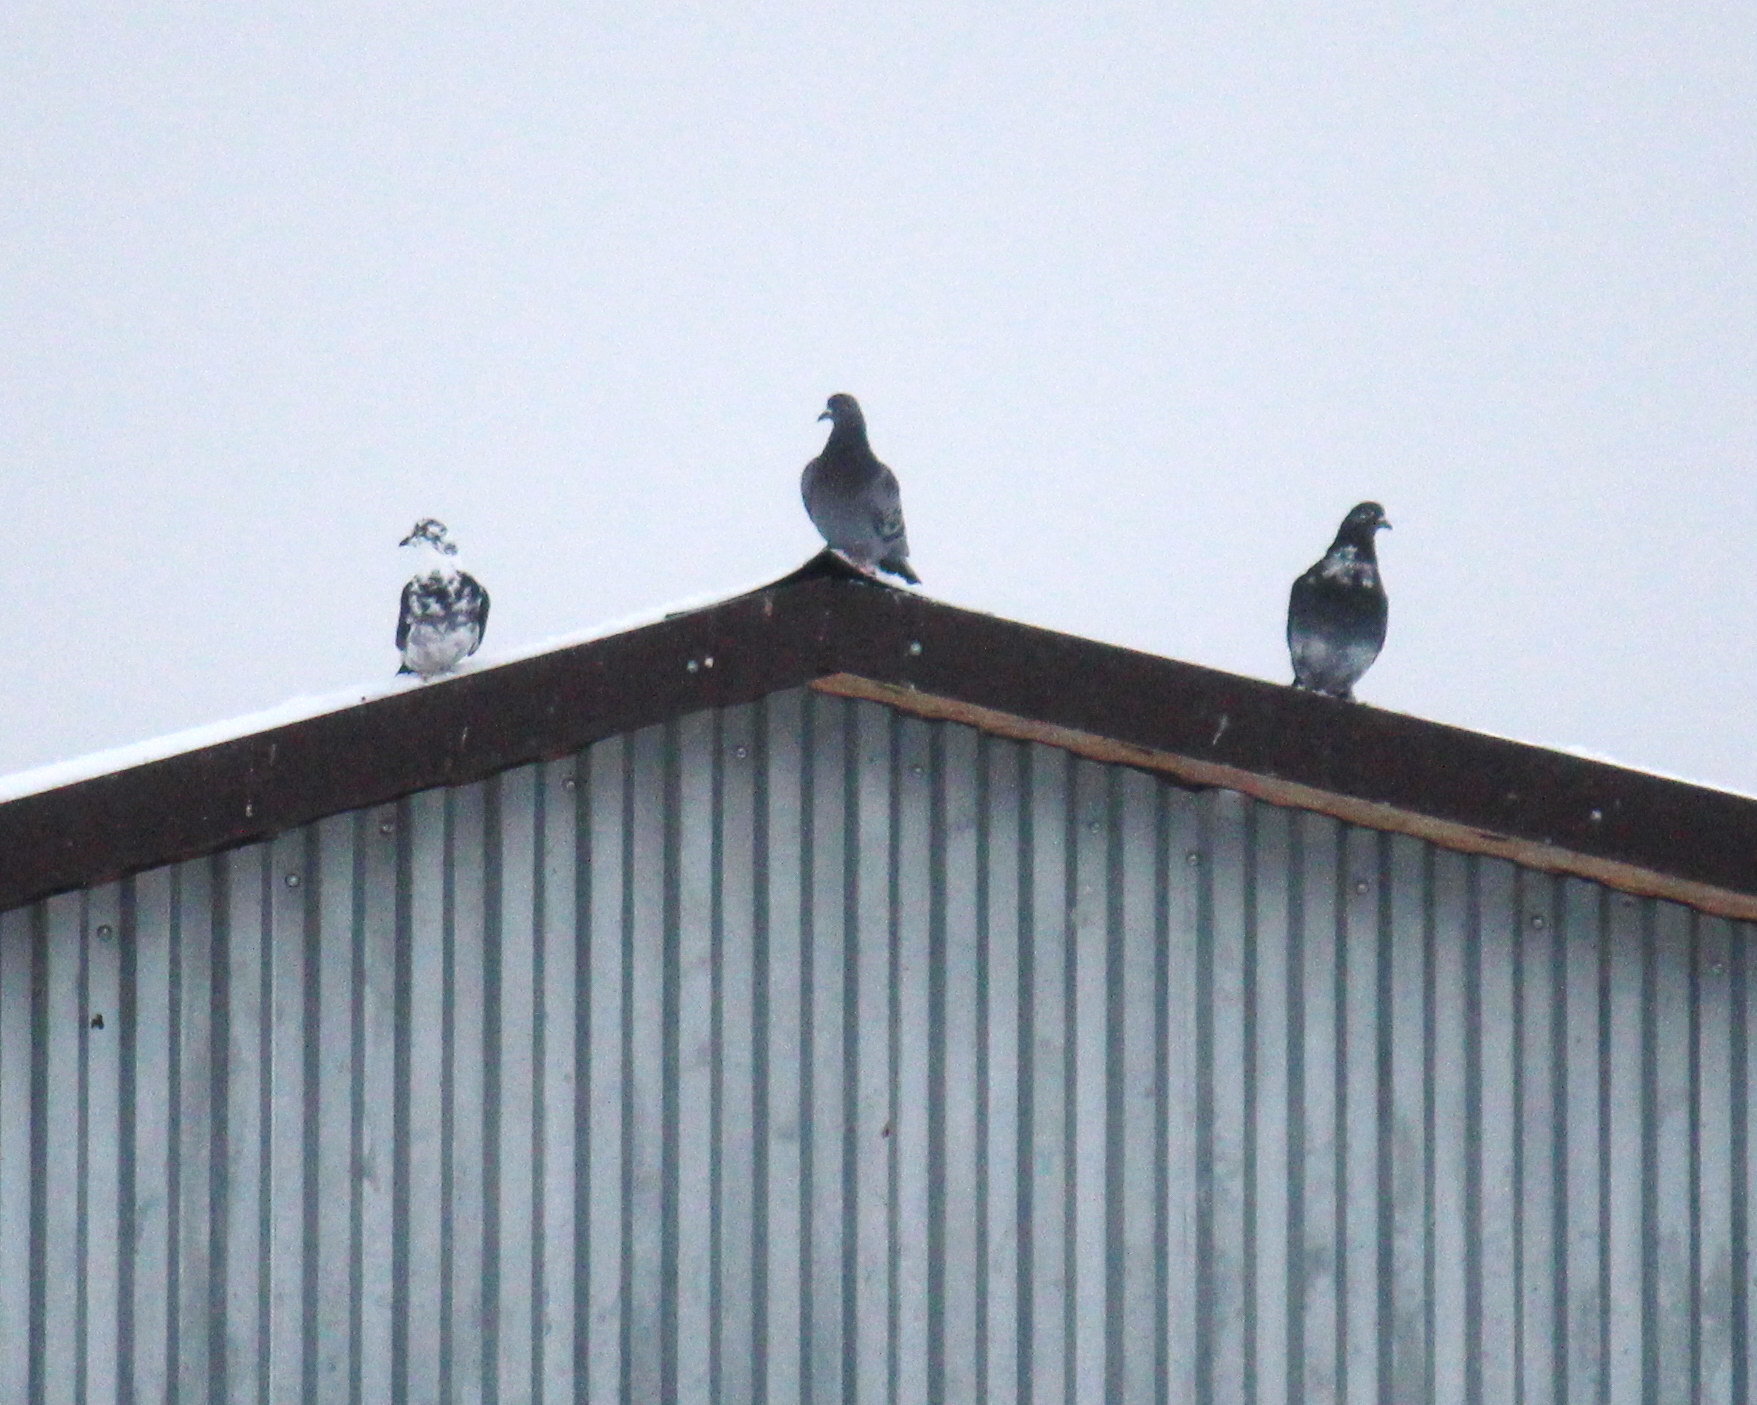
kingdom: Animalia
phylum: Chordata
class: Aves
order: Columbiformes
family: Columbidae
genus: Columba
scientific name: Columba livia
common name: Rock pigeon
